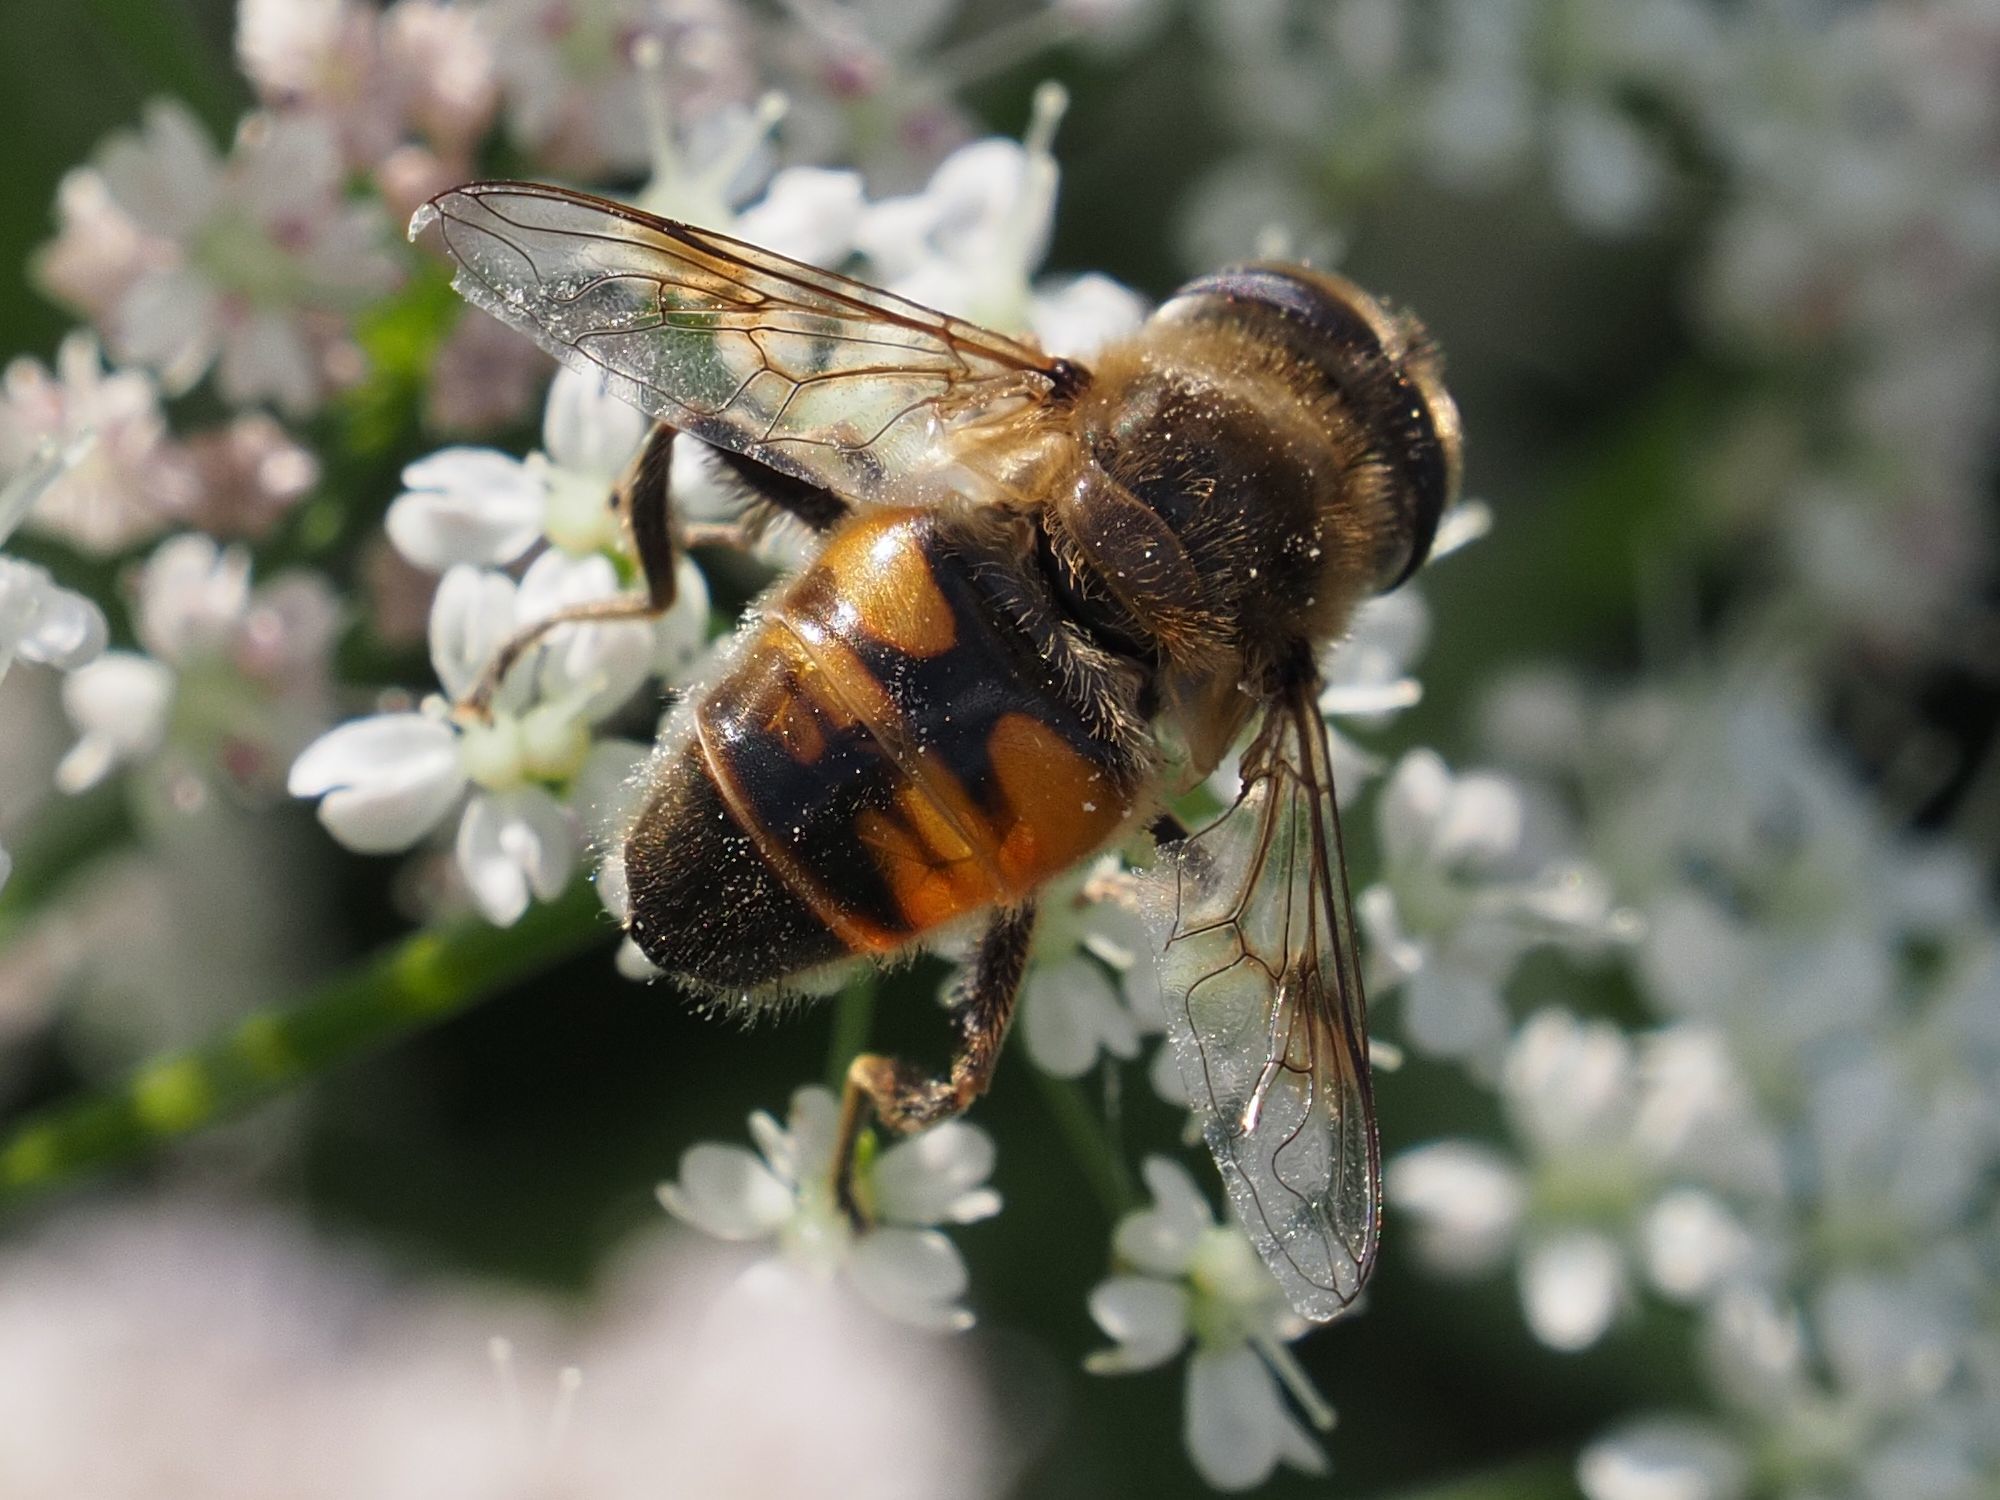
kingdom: Animalia
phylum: Arthropoda
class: Insecta
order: Diptera
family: Syrphidae
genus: Eristalis
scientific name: Eristalis tenax
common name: Drone fly
